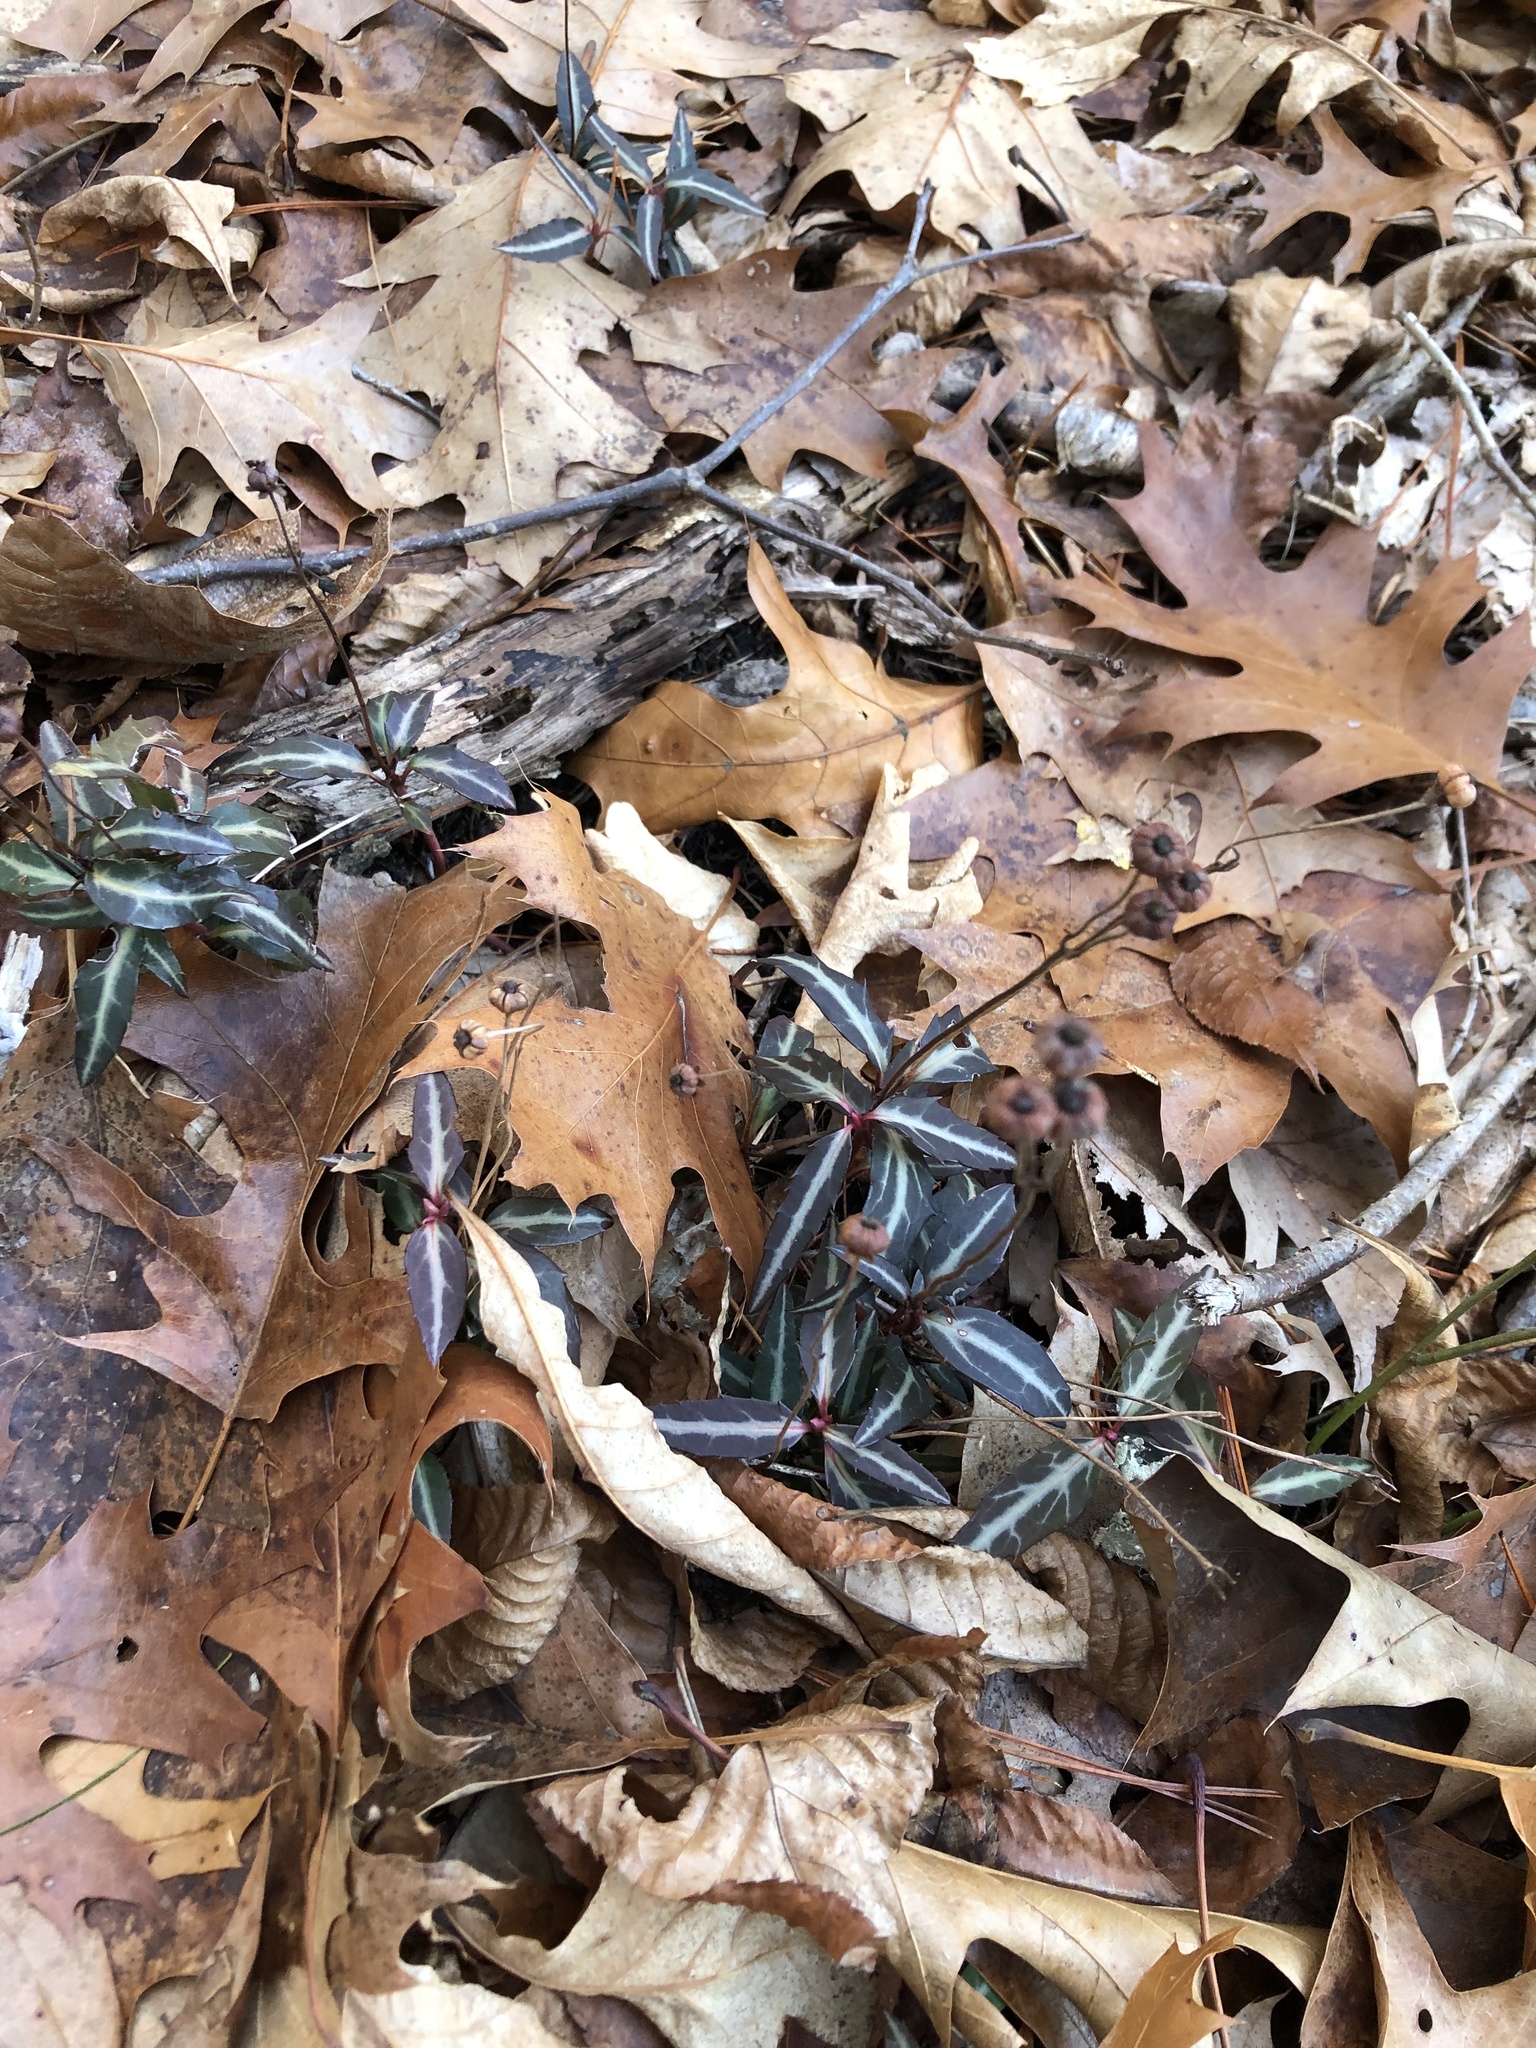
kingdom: Plantae
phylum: Tracheophyta
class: Magnoliopsida
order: Ericales
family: Ericaceae
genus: Chimaphila
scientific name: Chimaphila maculata
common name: Spotted pipsissewa
